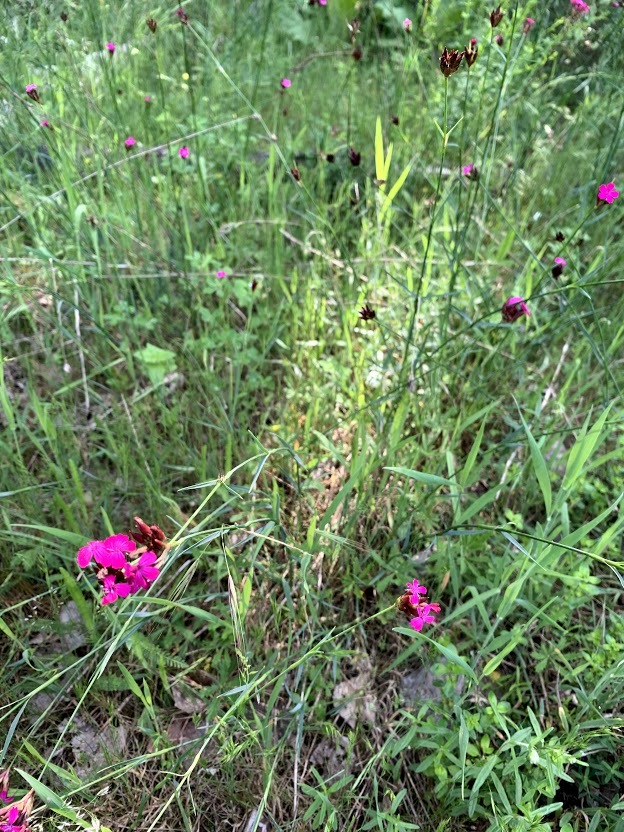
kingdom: Plantae
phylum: Tracheophyta
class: Magnoliopsida
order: Caryophyllales
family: Caryophyllaceae
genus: Dianthus
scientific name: Dianthus carthusianorum
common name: Carthusian pink
